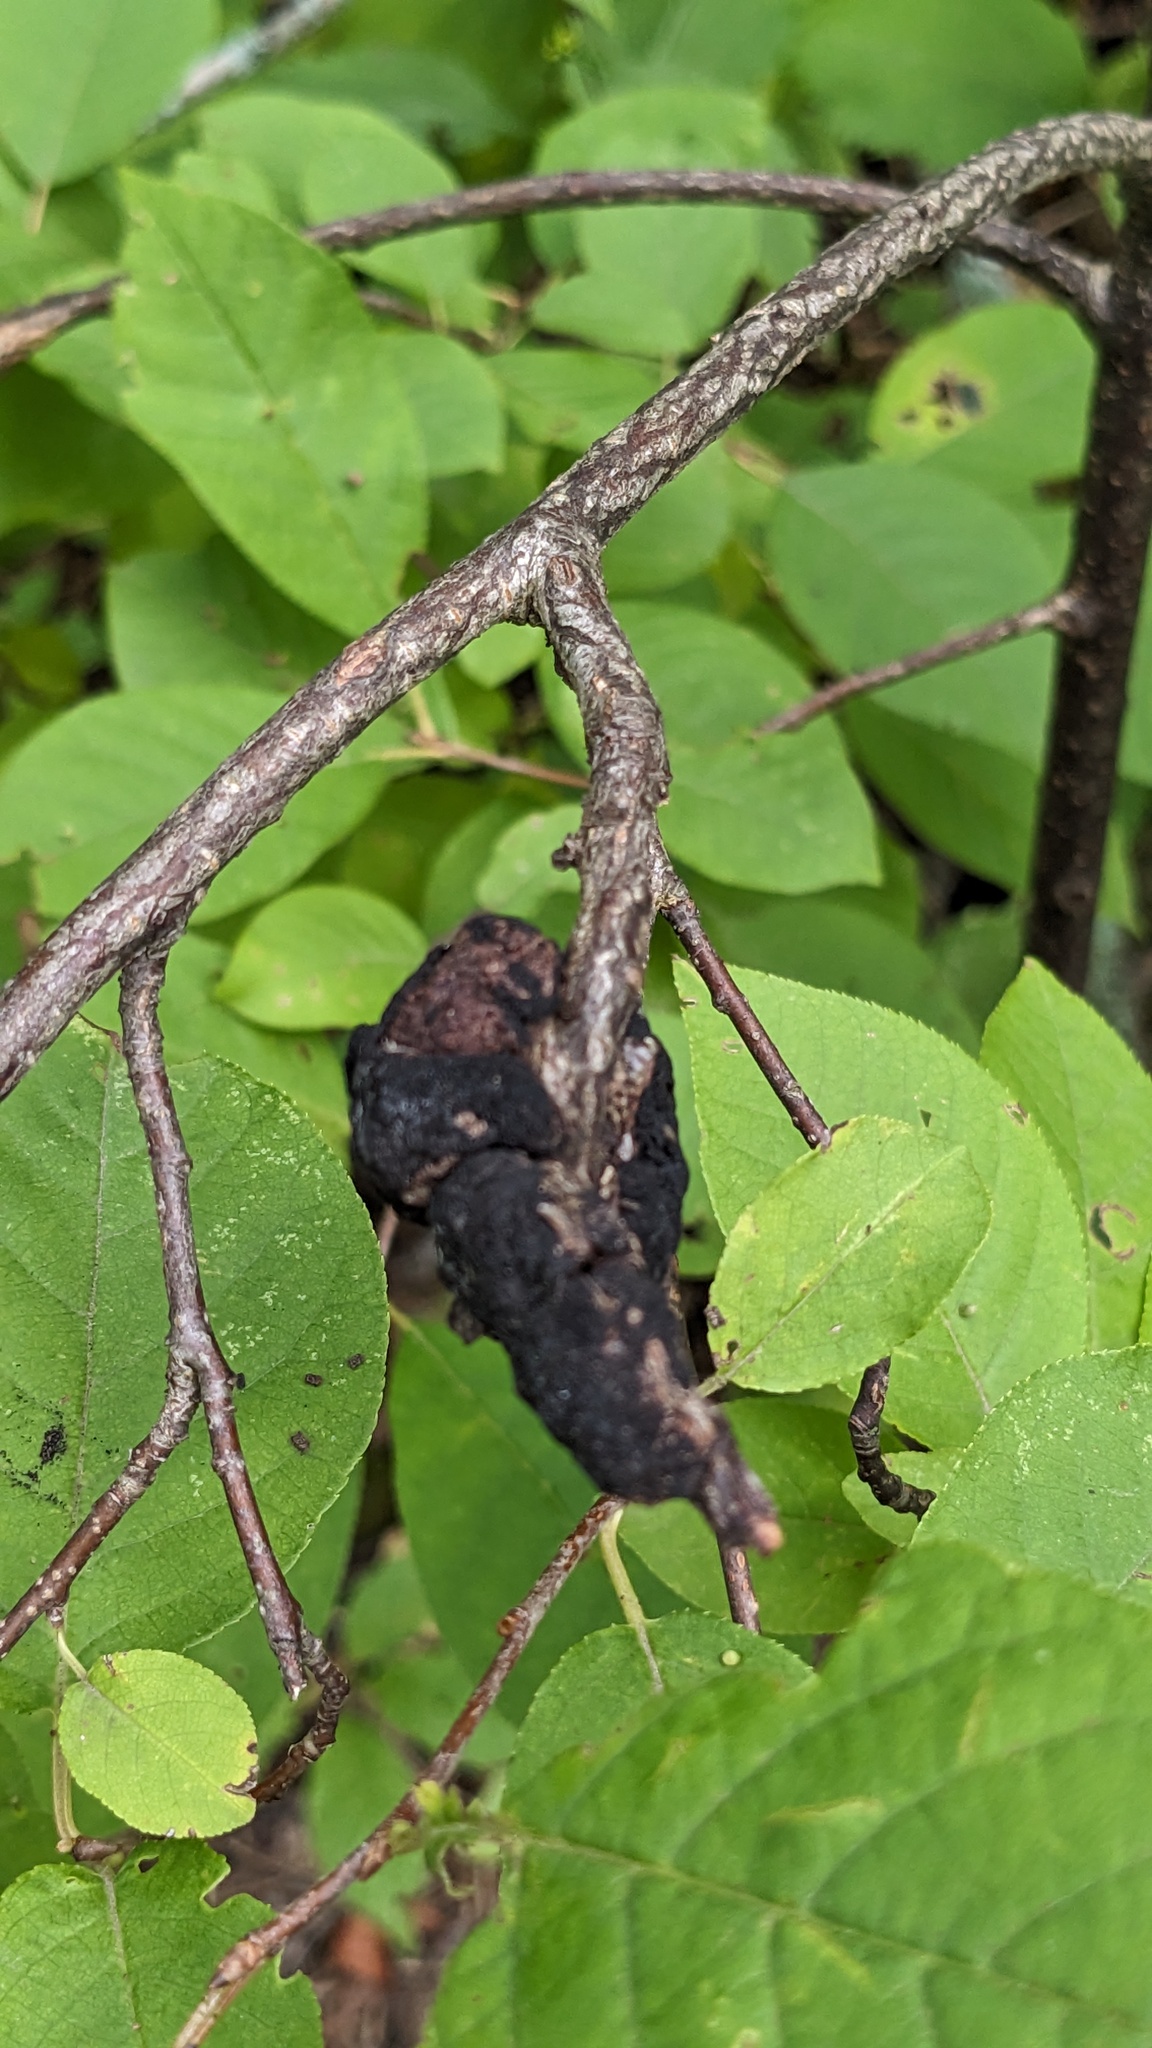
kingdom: Fungi
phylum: Ascomycota
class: Dothideomycetes
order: Venturiales
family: Venturiaceae
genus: Apiosporina
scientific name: Apiosporina morbosa
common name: Black knot
